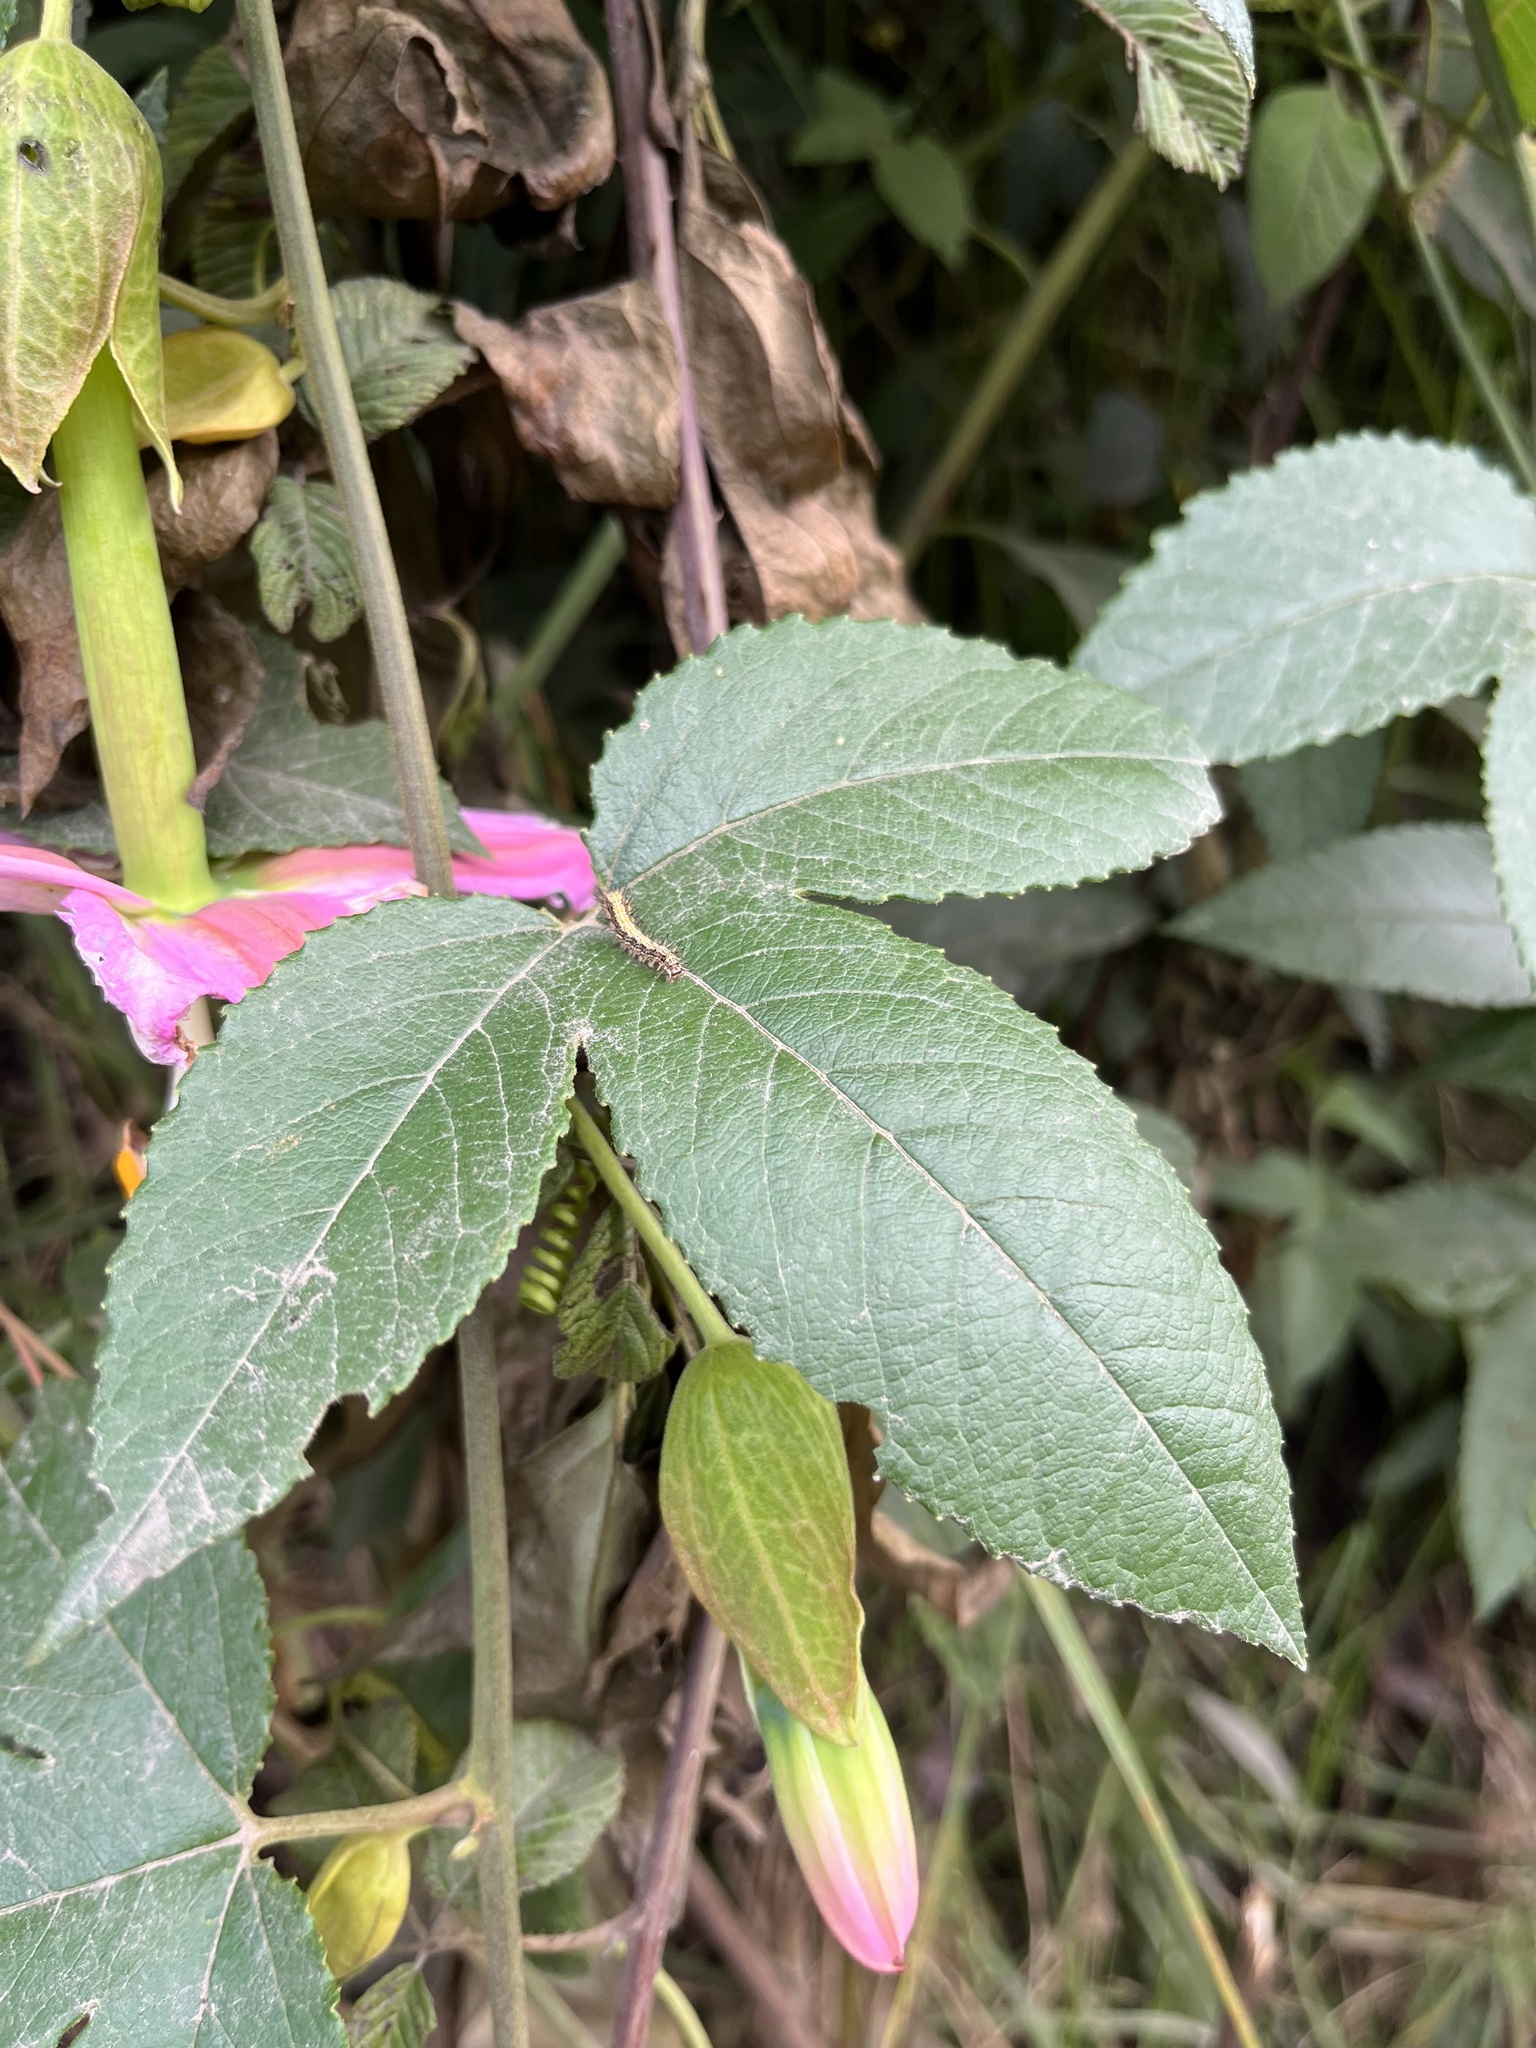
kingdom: Plantae
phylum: Tracheophyta
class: Magnoliopsida
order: Malpighiales
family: Passifloraceae
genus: Passiflora
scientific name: Passiflora tarminiana
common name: Banana poka
